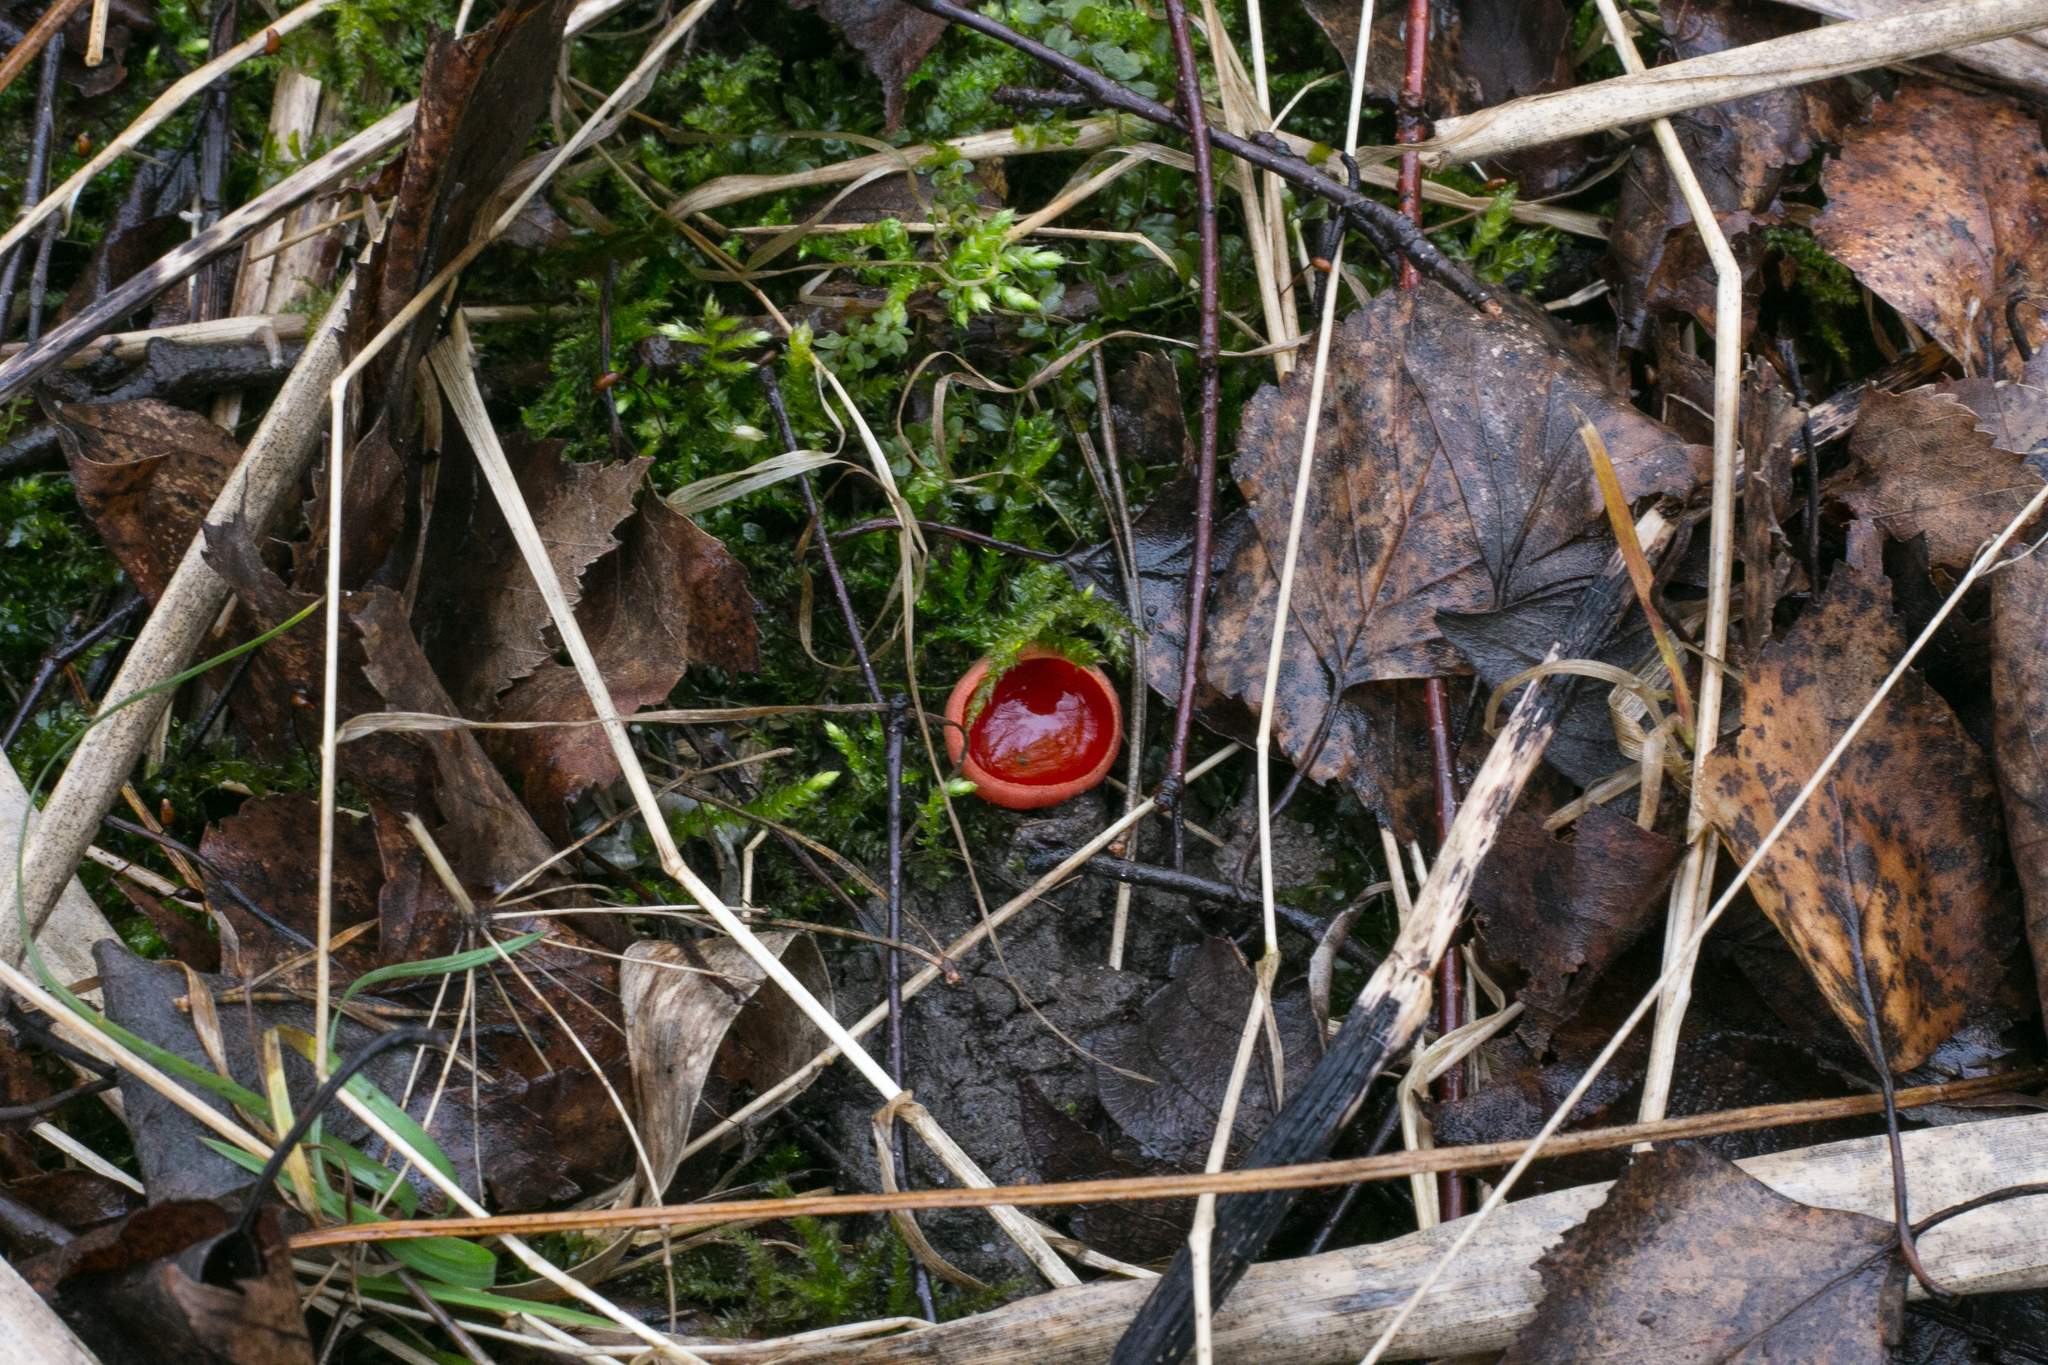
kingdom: Fungi
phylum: Ascomycota
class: Pezizomycetes
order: Pezizales
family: Sarcoscyphaceae
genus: Sarcoscypha
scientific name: Sarcoscypha
